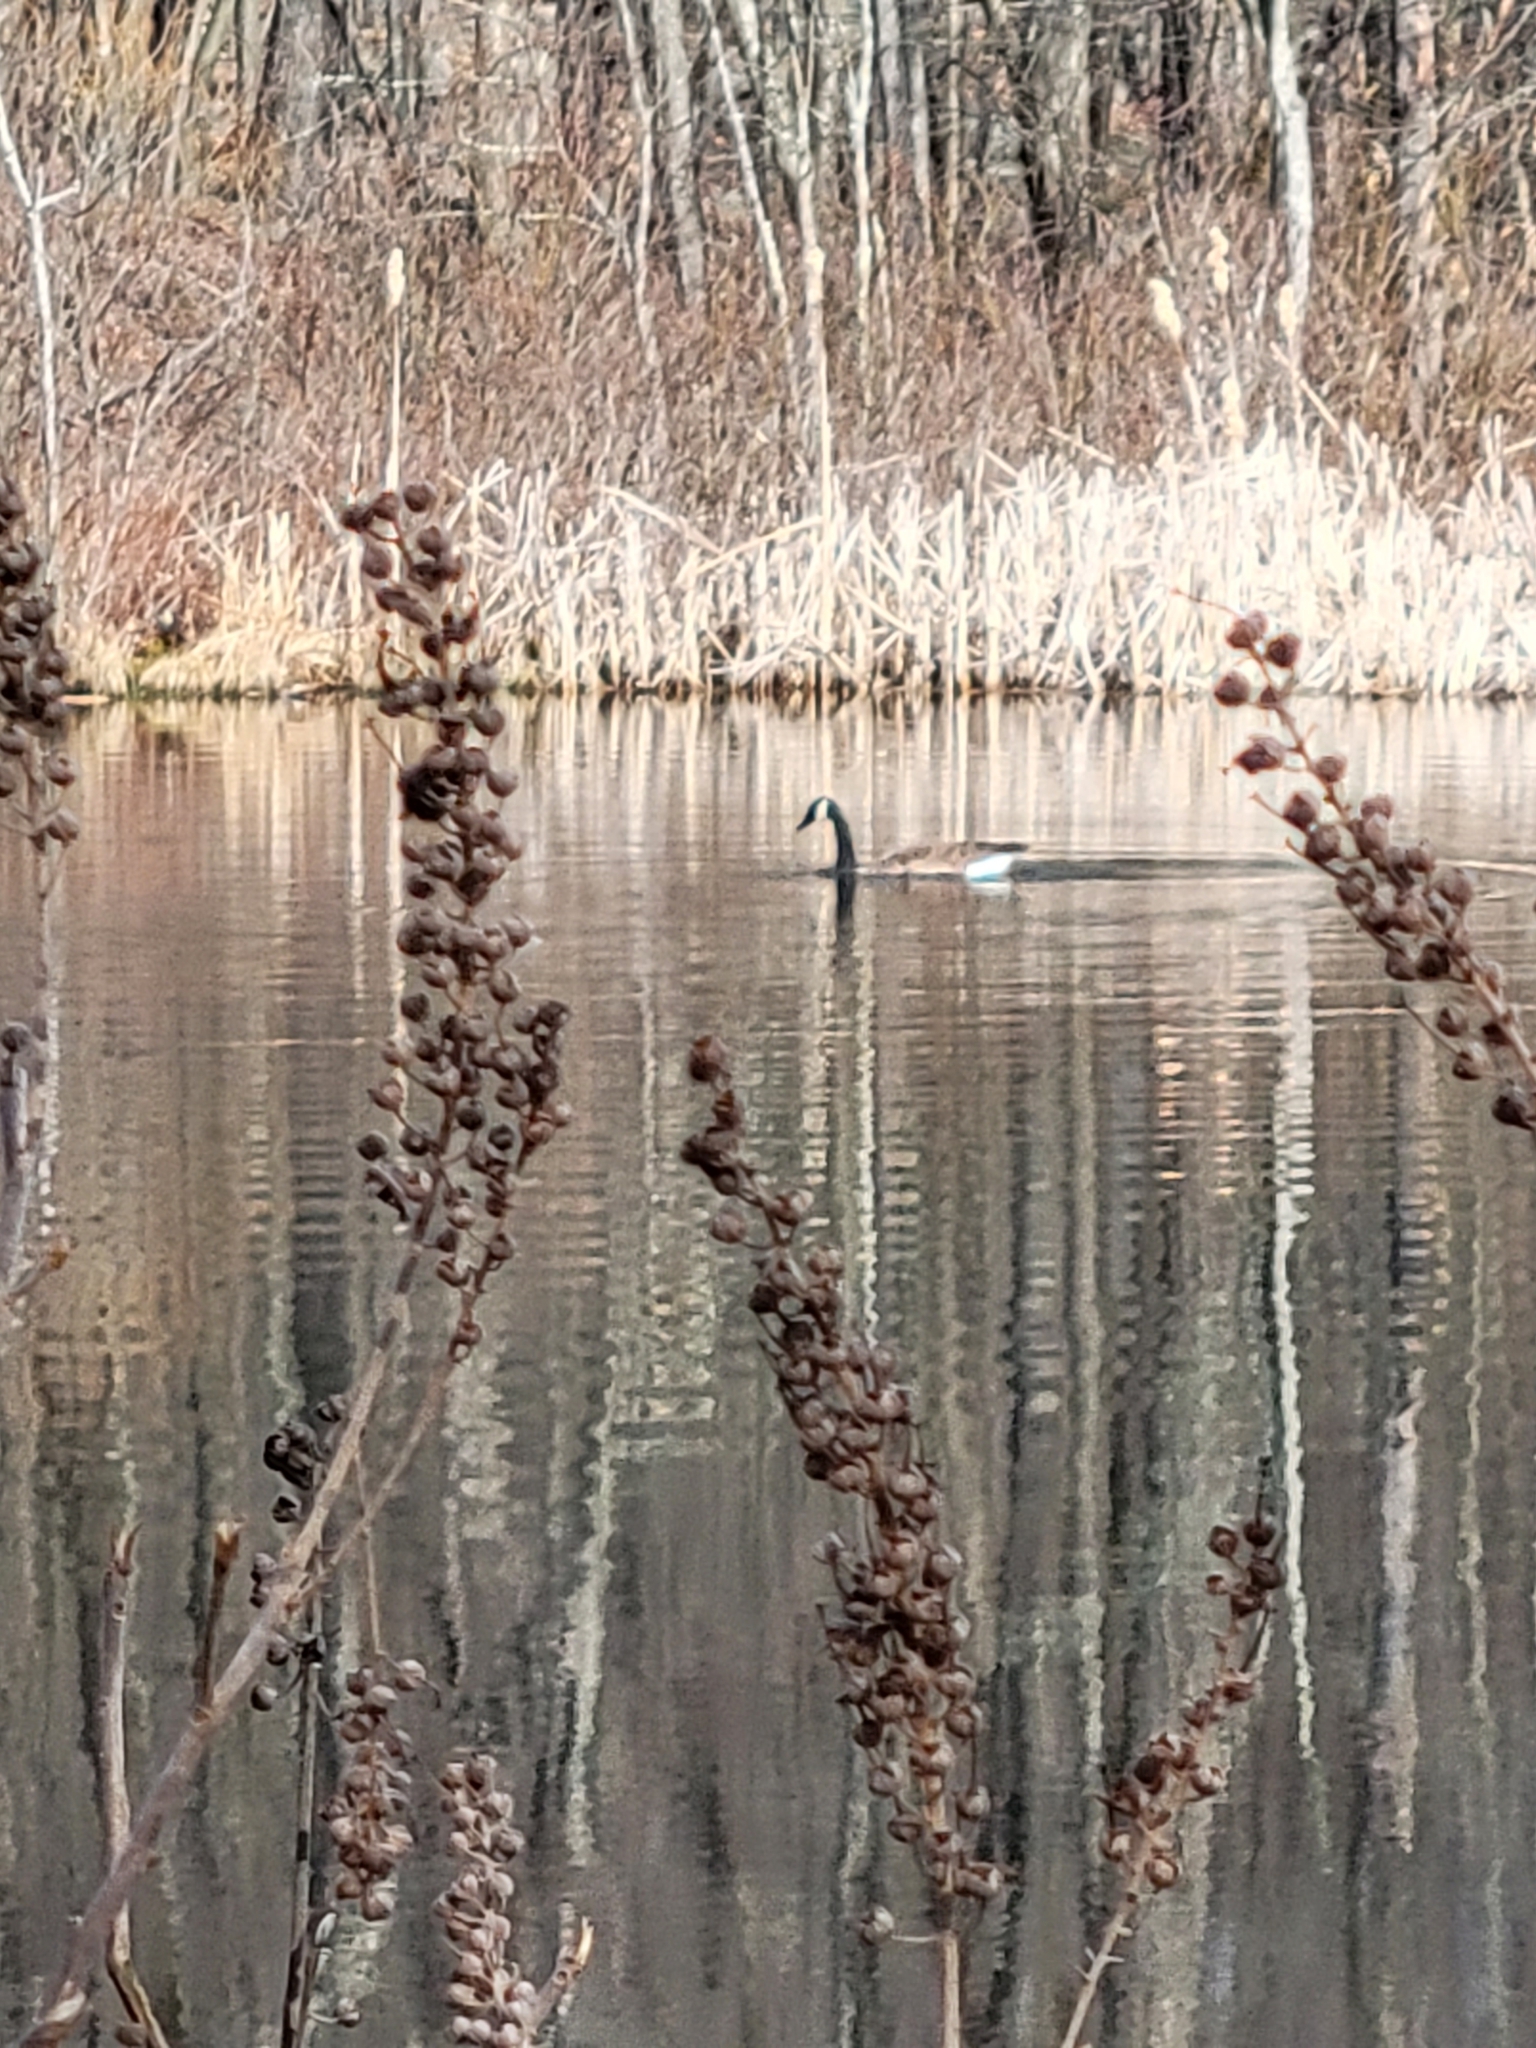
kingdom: Animalia
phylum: Chordata
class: Aves
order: Anseriformes
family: Anatidae
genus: Branta
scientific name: Branta canadensis
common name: Canada goose
